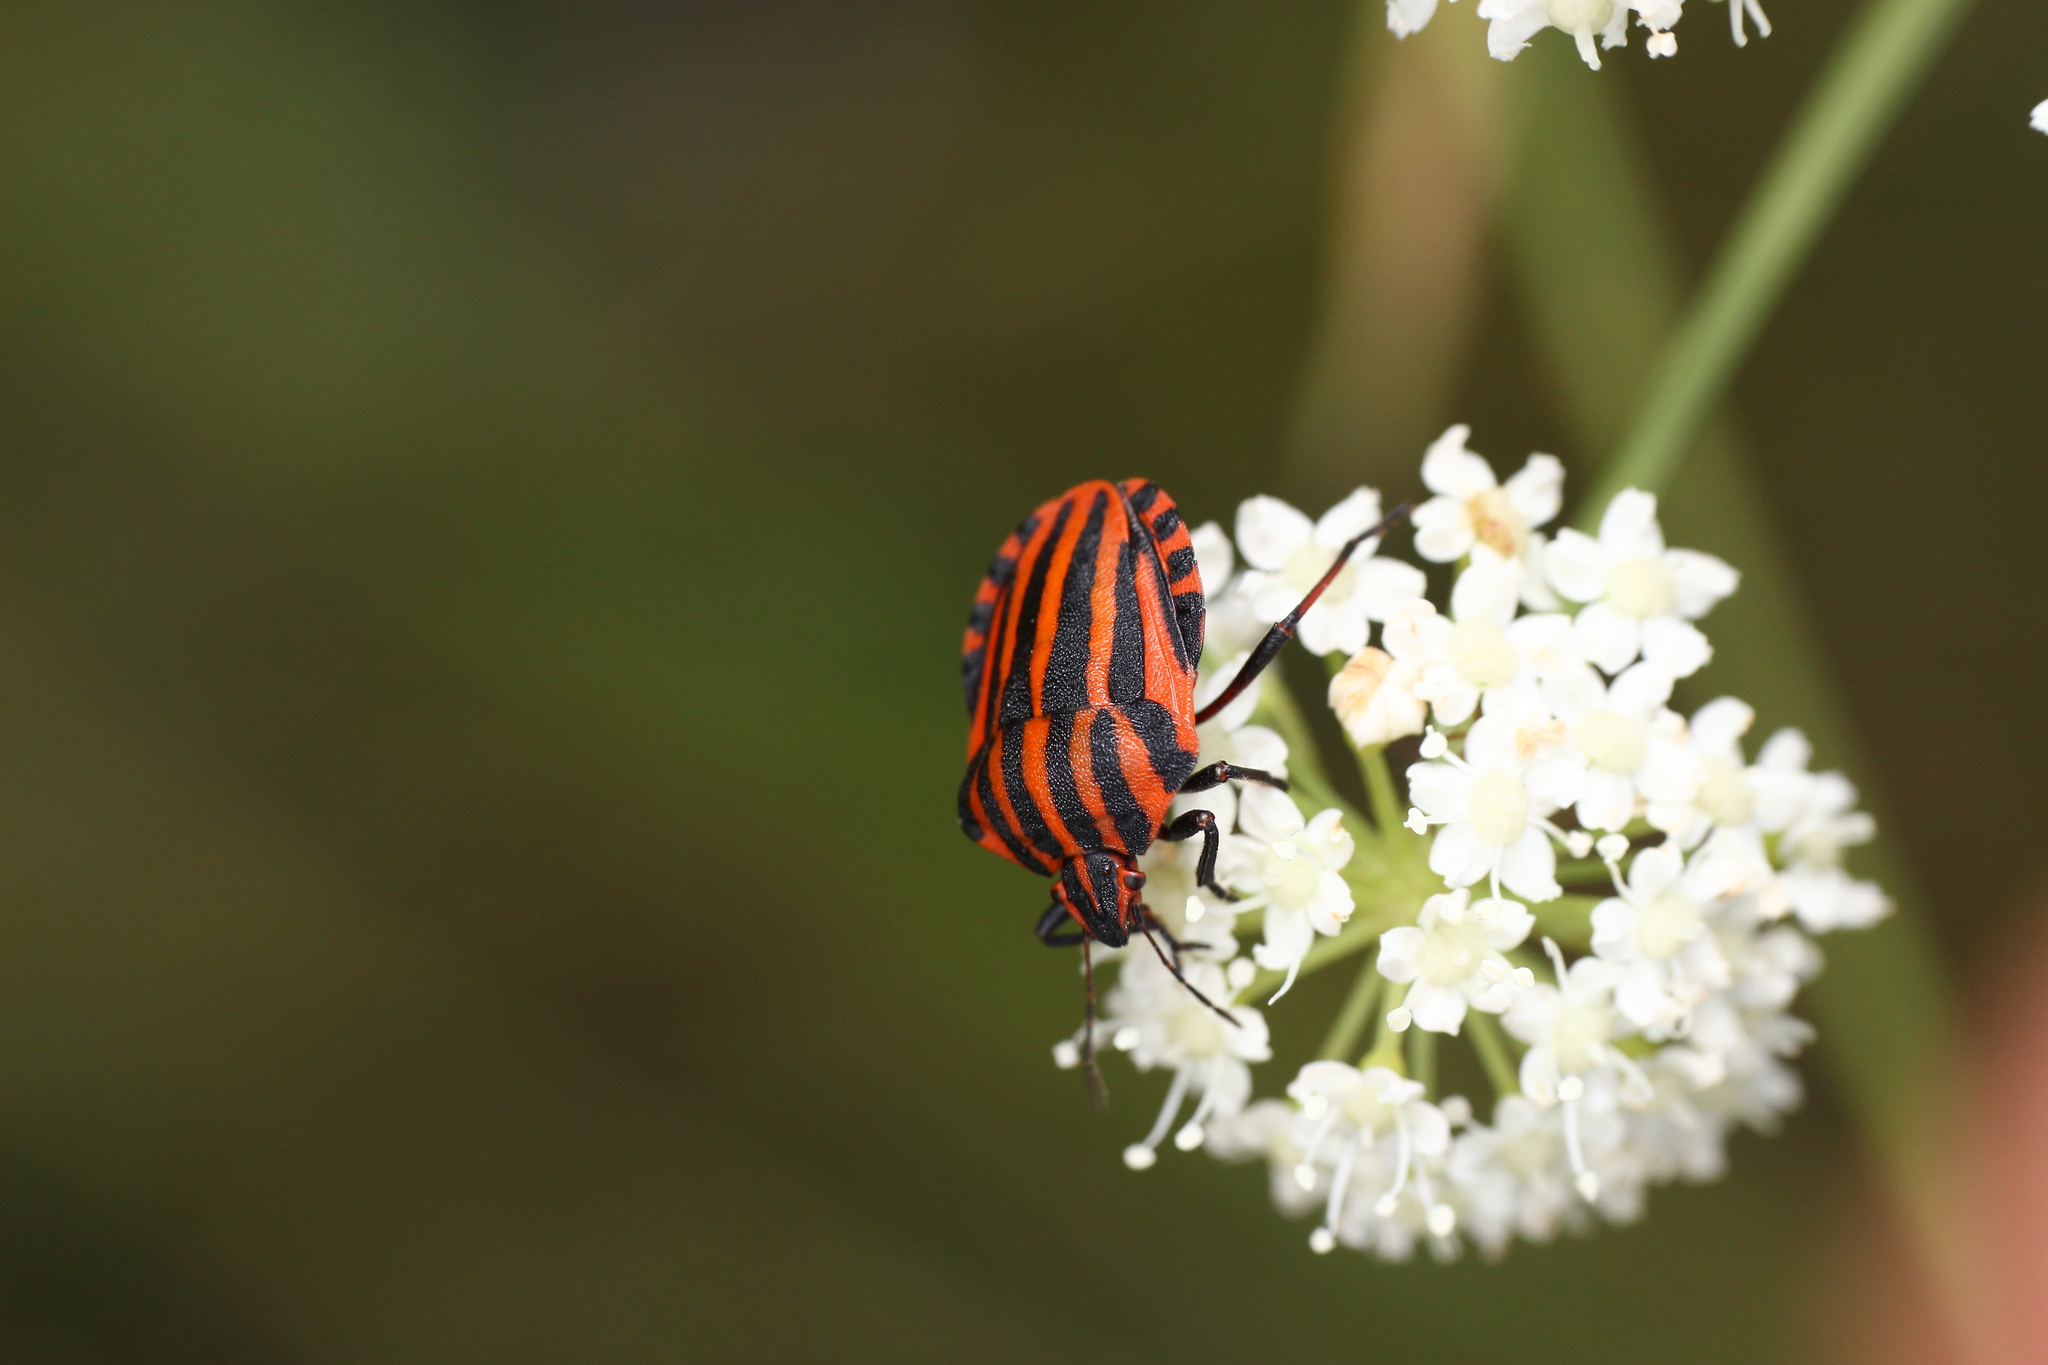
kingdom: Animalia
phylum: Arthropoda
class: Insecta
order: Hemiptera
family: Pentatomidae
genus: Graphosoma
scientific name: Graphosoma italicum
